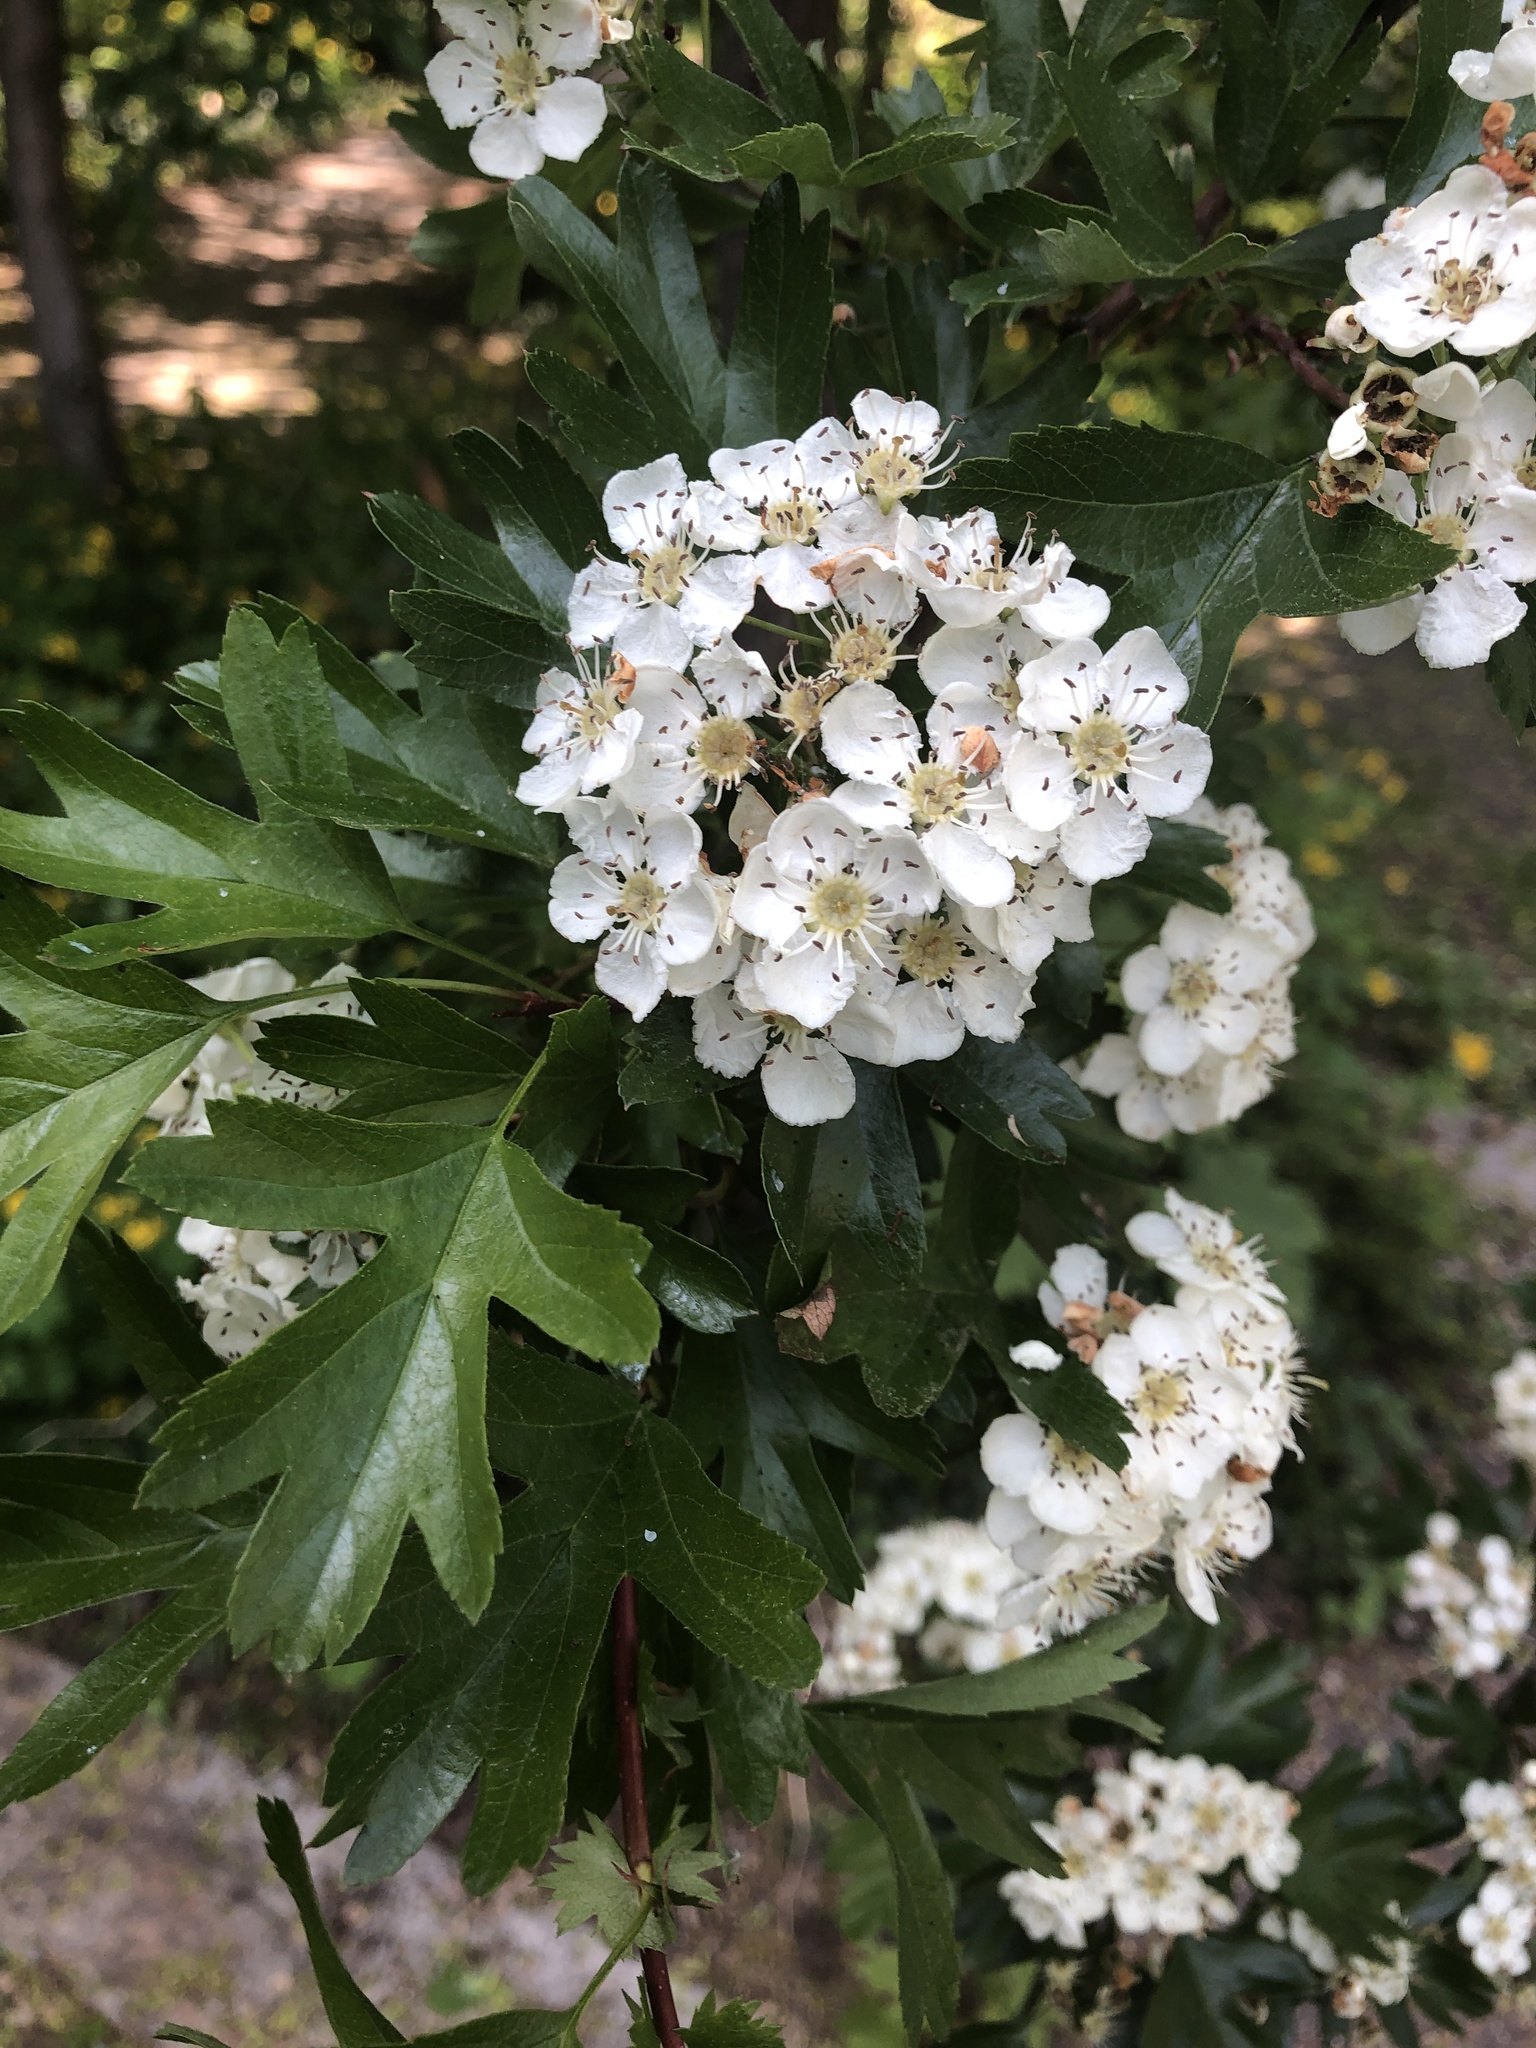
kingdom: Plantae
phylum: Tracheophyta
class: Magnoliopsida
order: Rosales
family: Rosaceae
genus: Crataegus
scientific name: Crataegus monogyna
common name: Hawthorn
